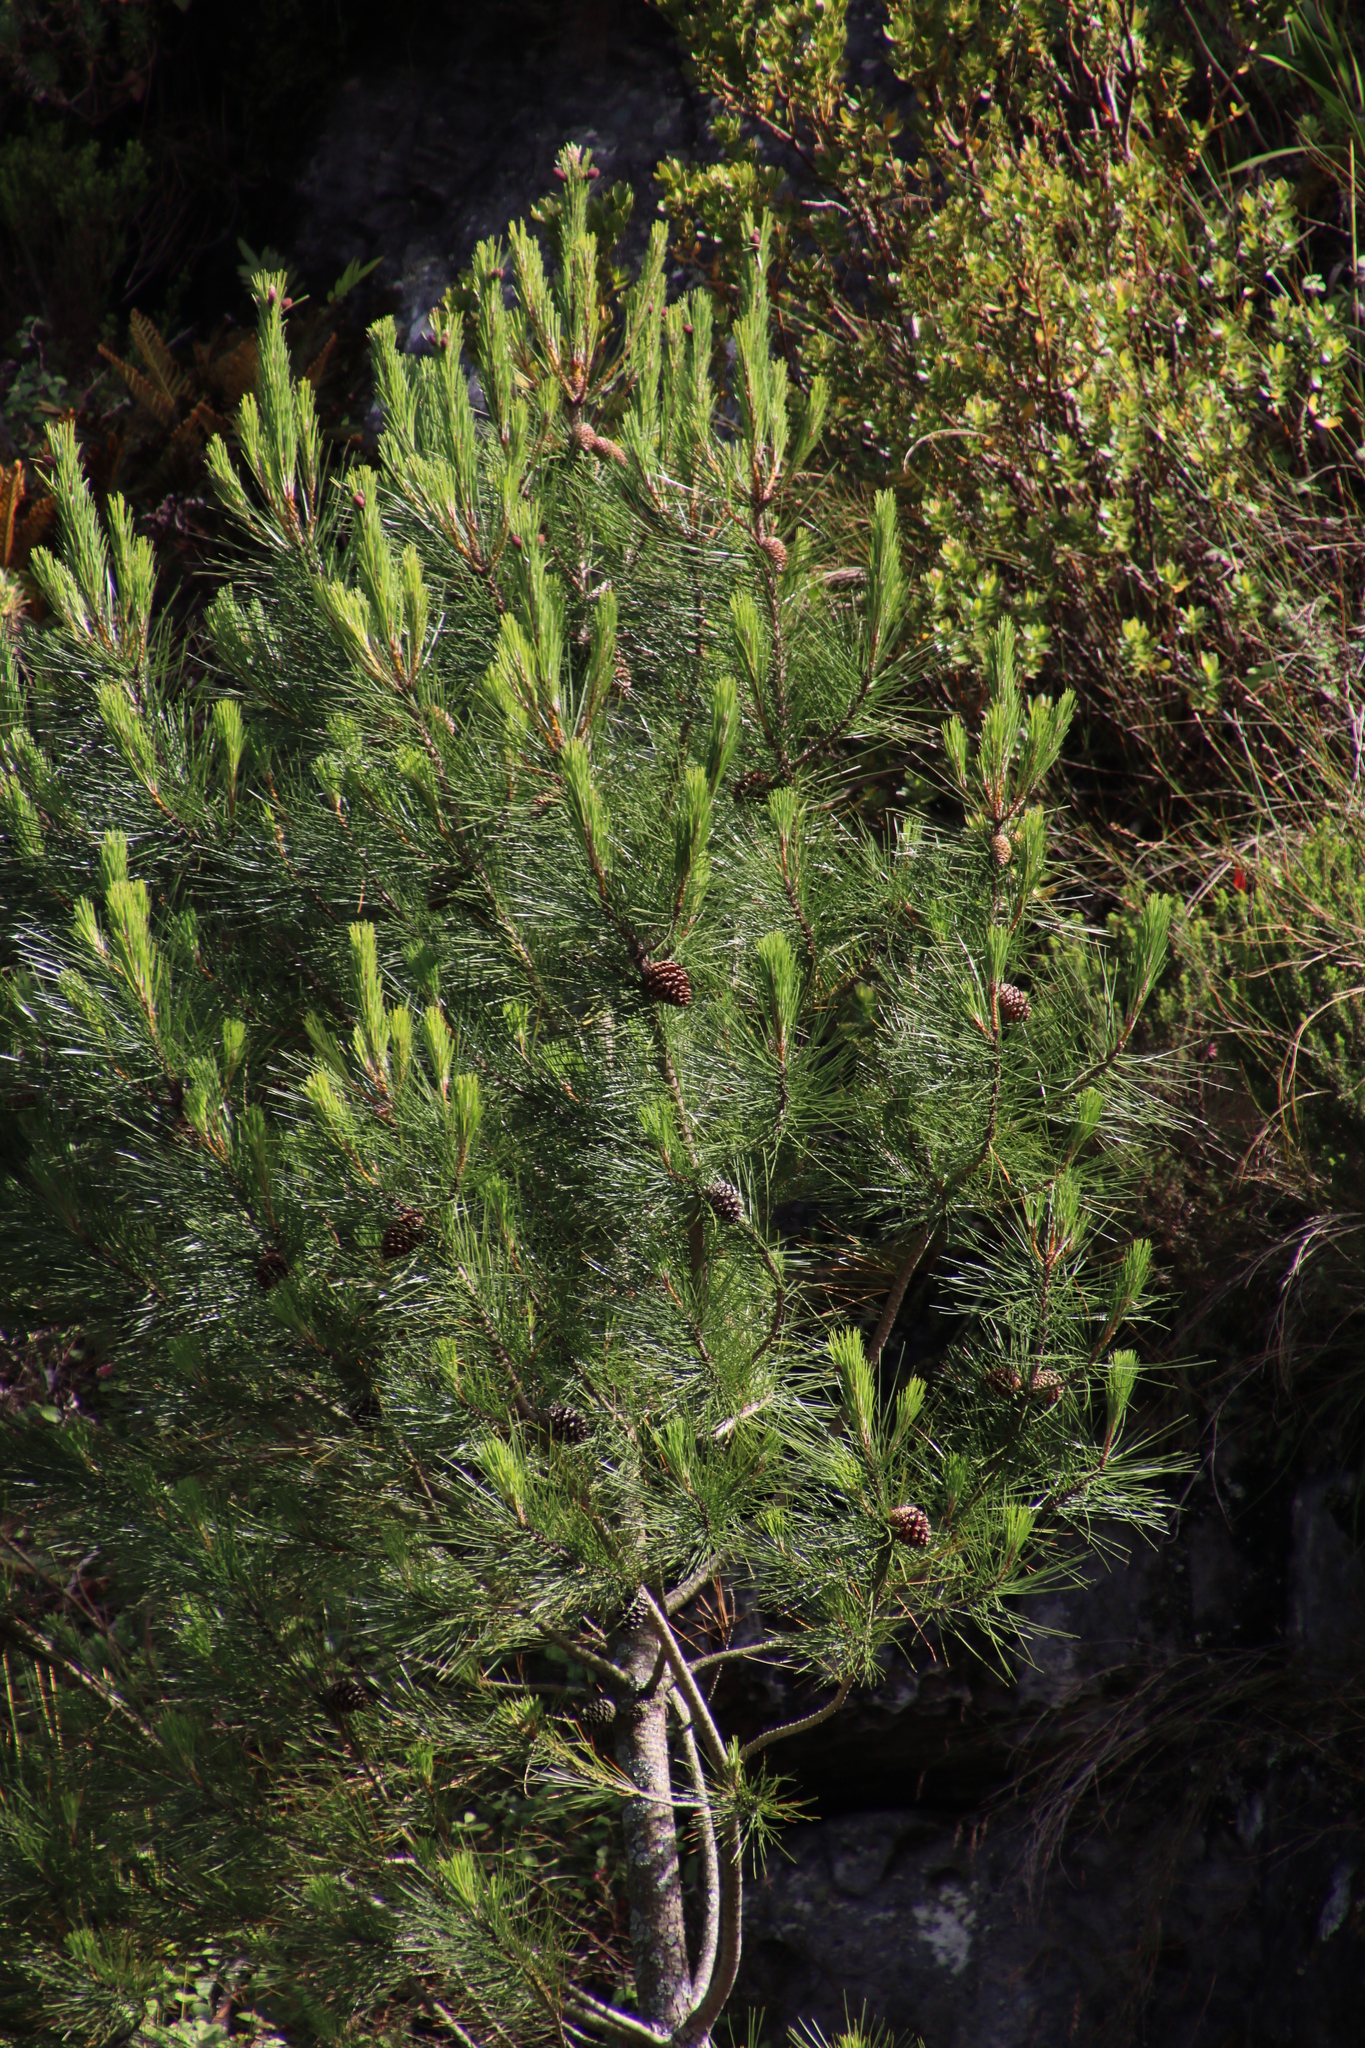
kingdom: Plantae
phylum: Tracheophyta
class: Pinopsida
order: Pinales
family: Pinaceae
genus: Pinus
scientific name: Pinus pinaster
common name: Maritime pine
